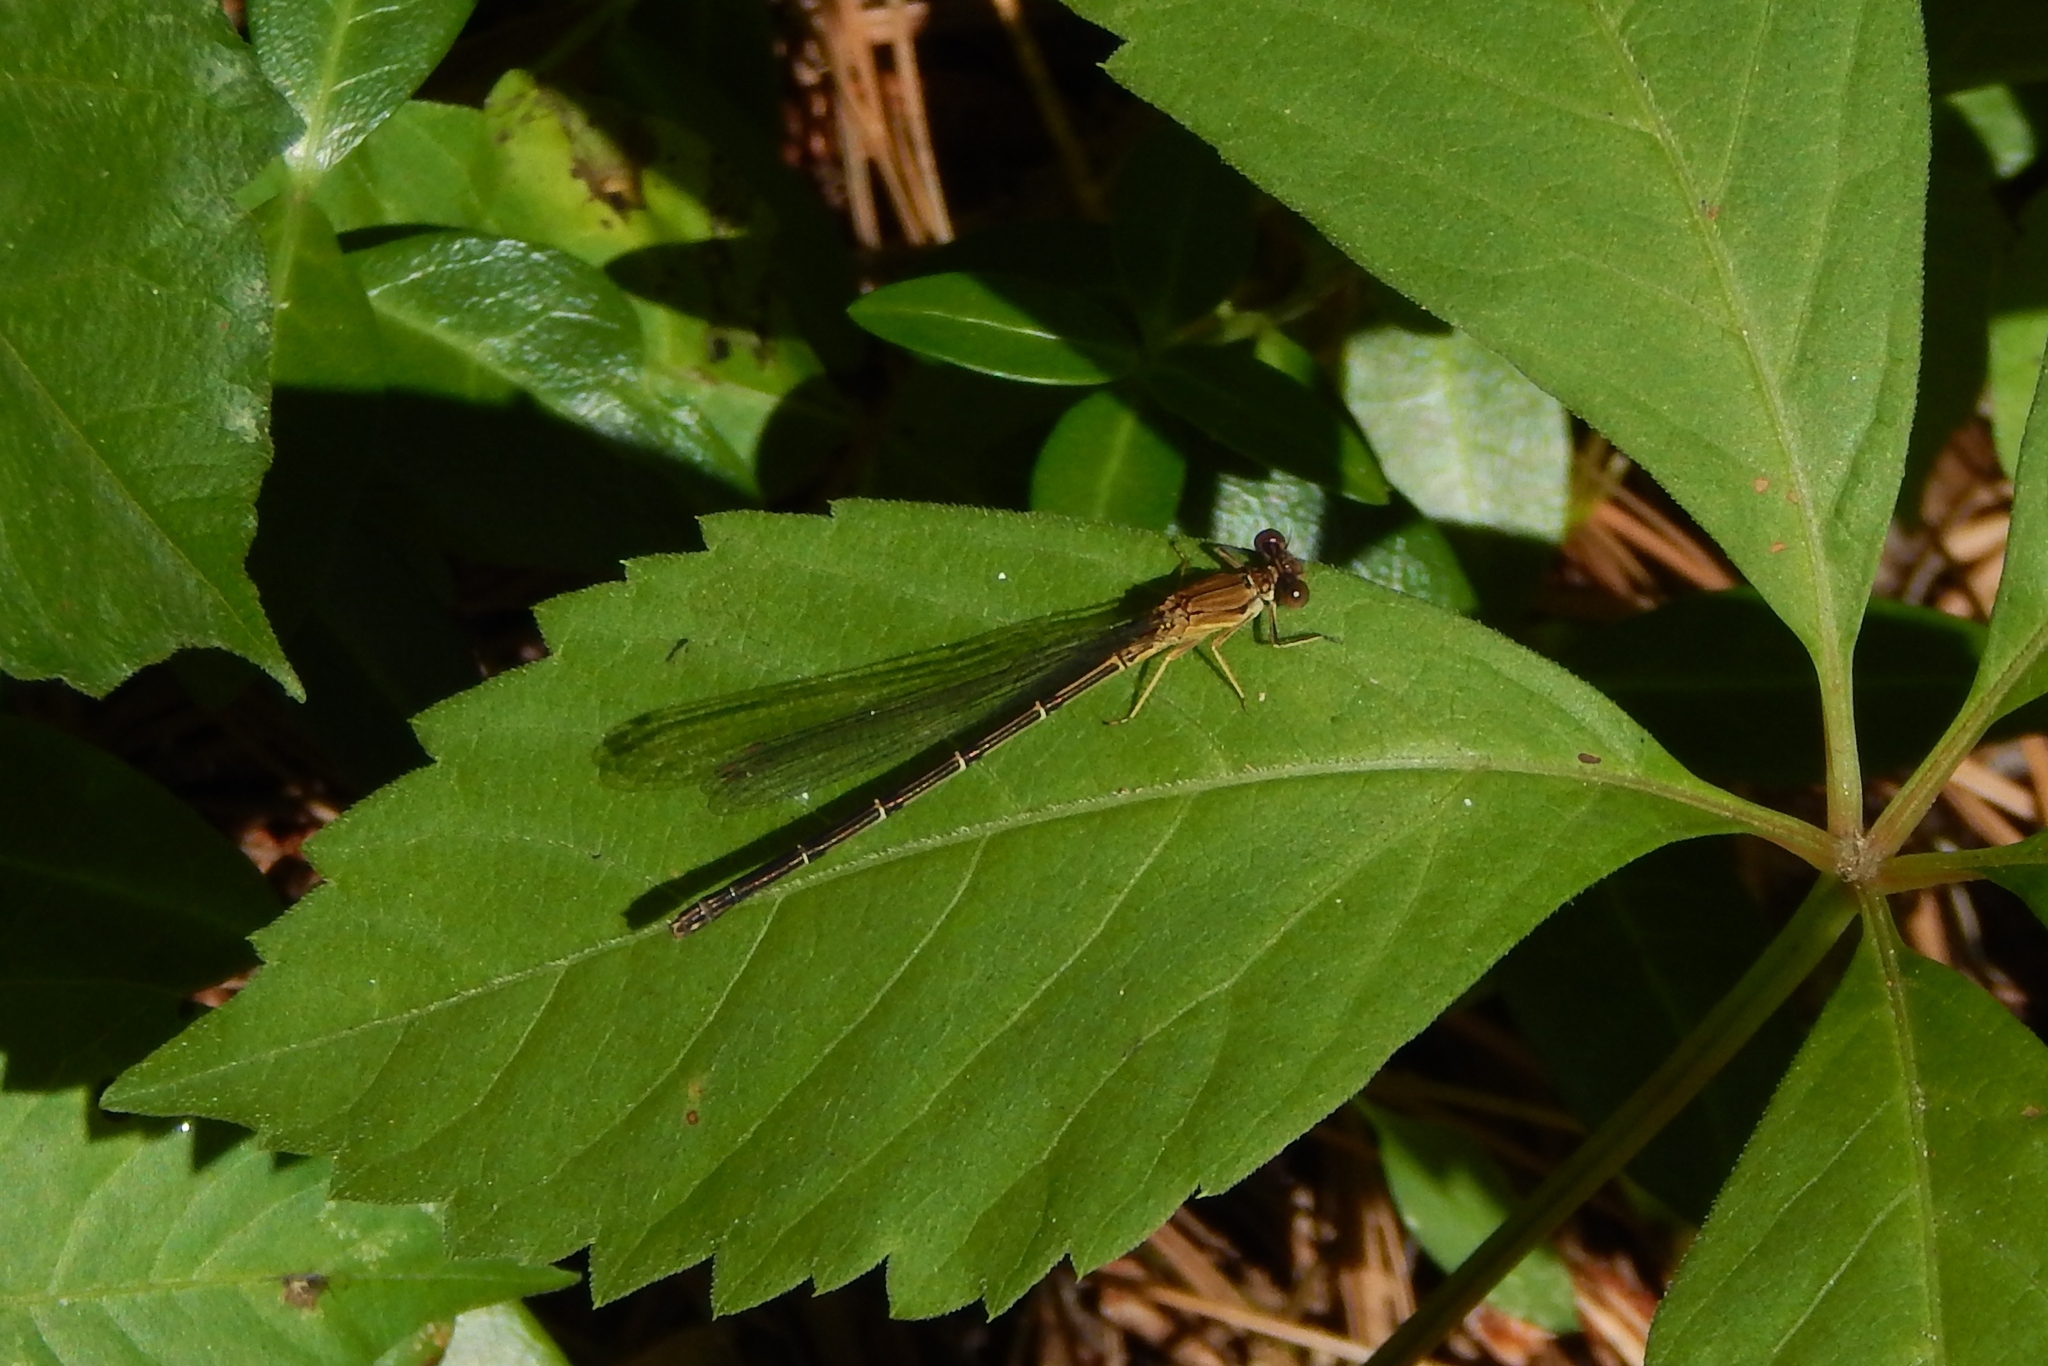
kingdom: Animalia
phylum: Arthropoda
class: Insecta
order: Odonata
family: Coenagrionidae
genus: Argia
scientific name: Argia apicalis
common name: Blue-fronted dancer
